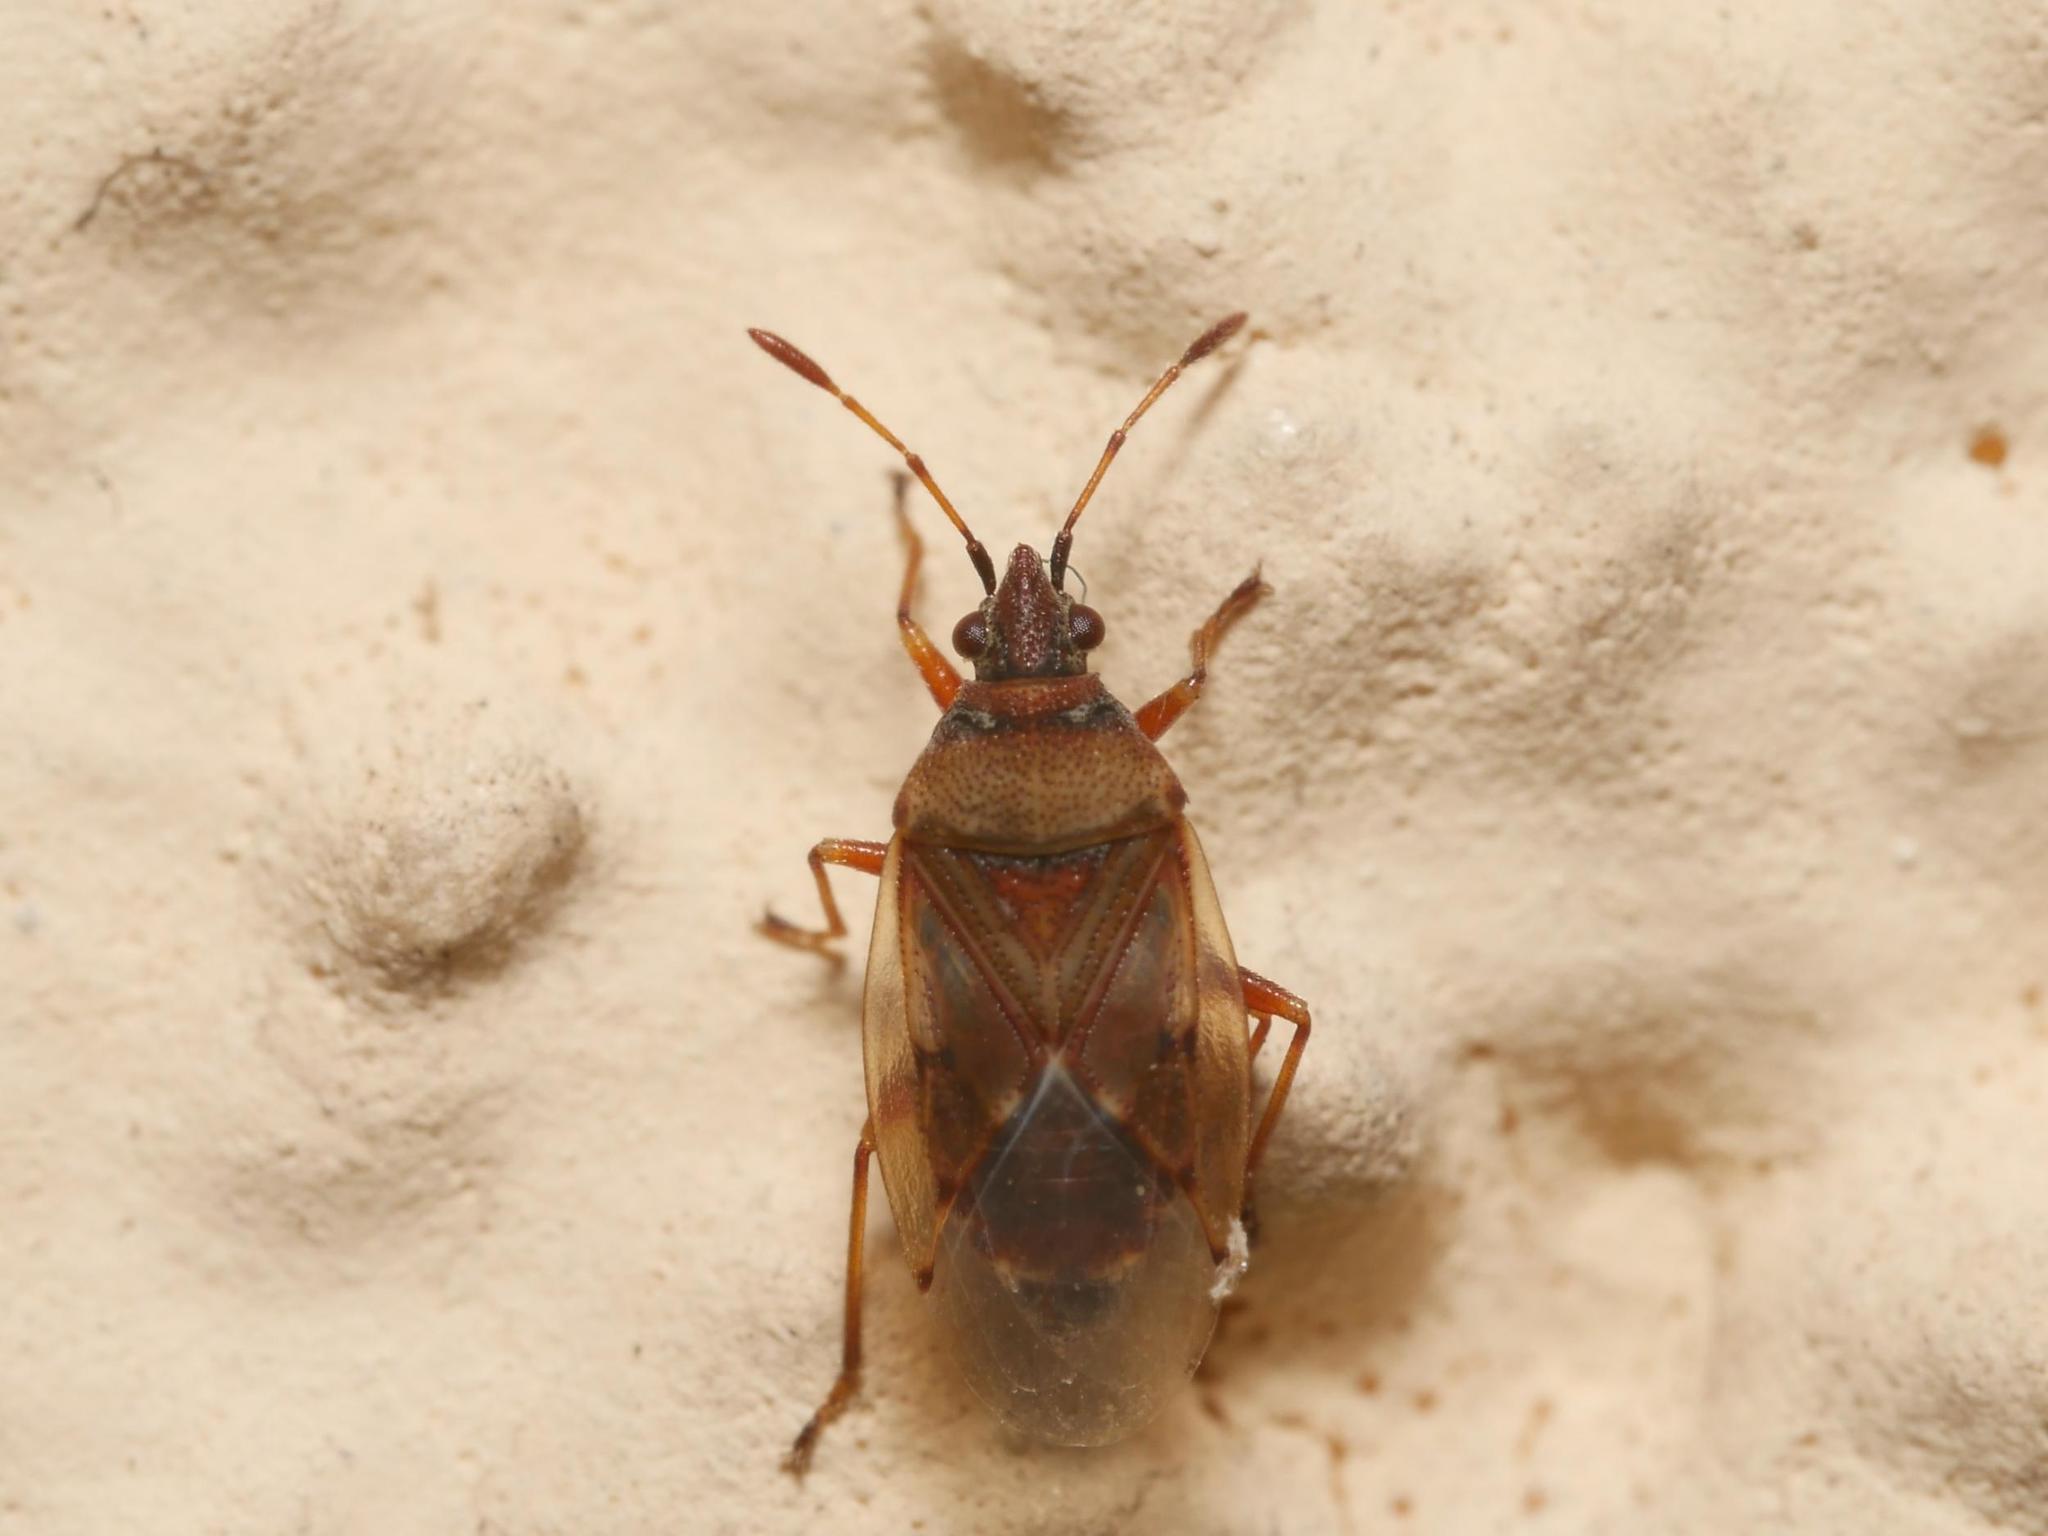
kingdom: Animalia
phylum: Arthropoda
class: Insecta
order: Hemiptera
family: Lygaeidae
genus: Kleidocerys
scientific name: Kleidocerys resedae
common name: Birch catkin bug
